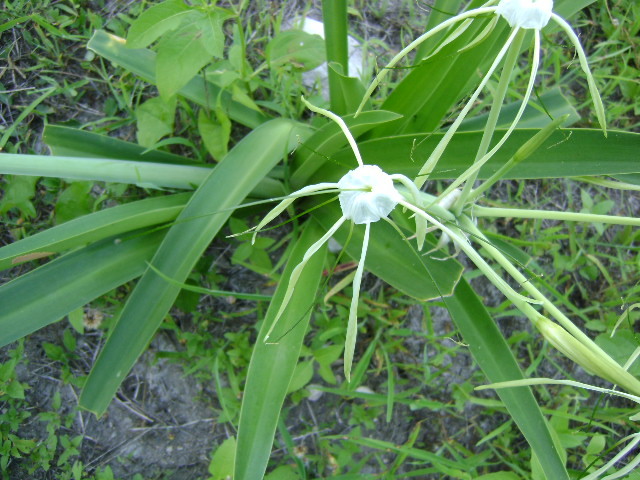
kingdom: Plantae
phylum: Tracheophyta
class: Liliopsida
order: Asparagales
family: Amaryllidaceae
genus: Hymenocallis
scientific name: Hymenocallis littoralis
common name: Beach spiderlily
